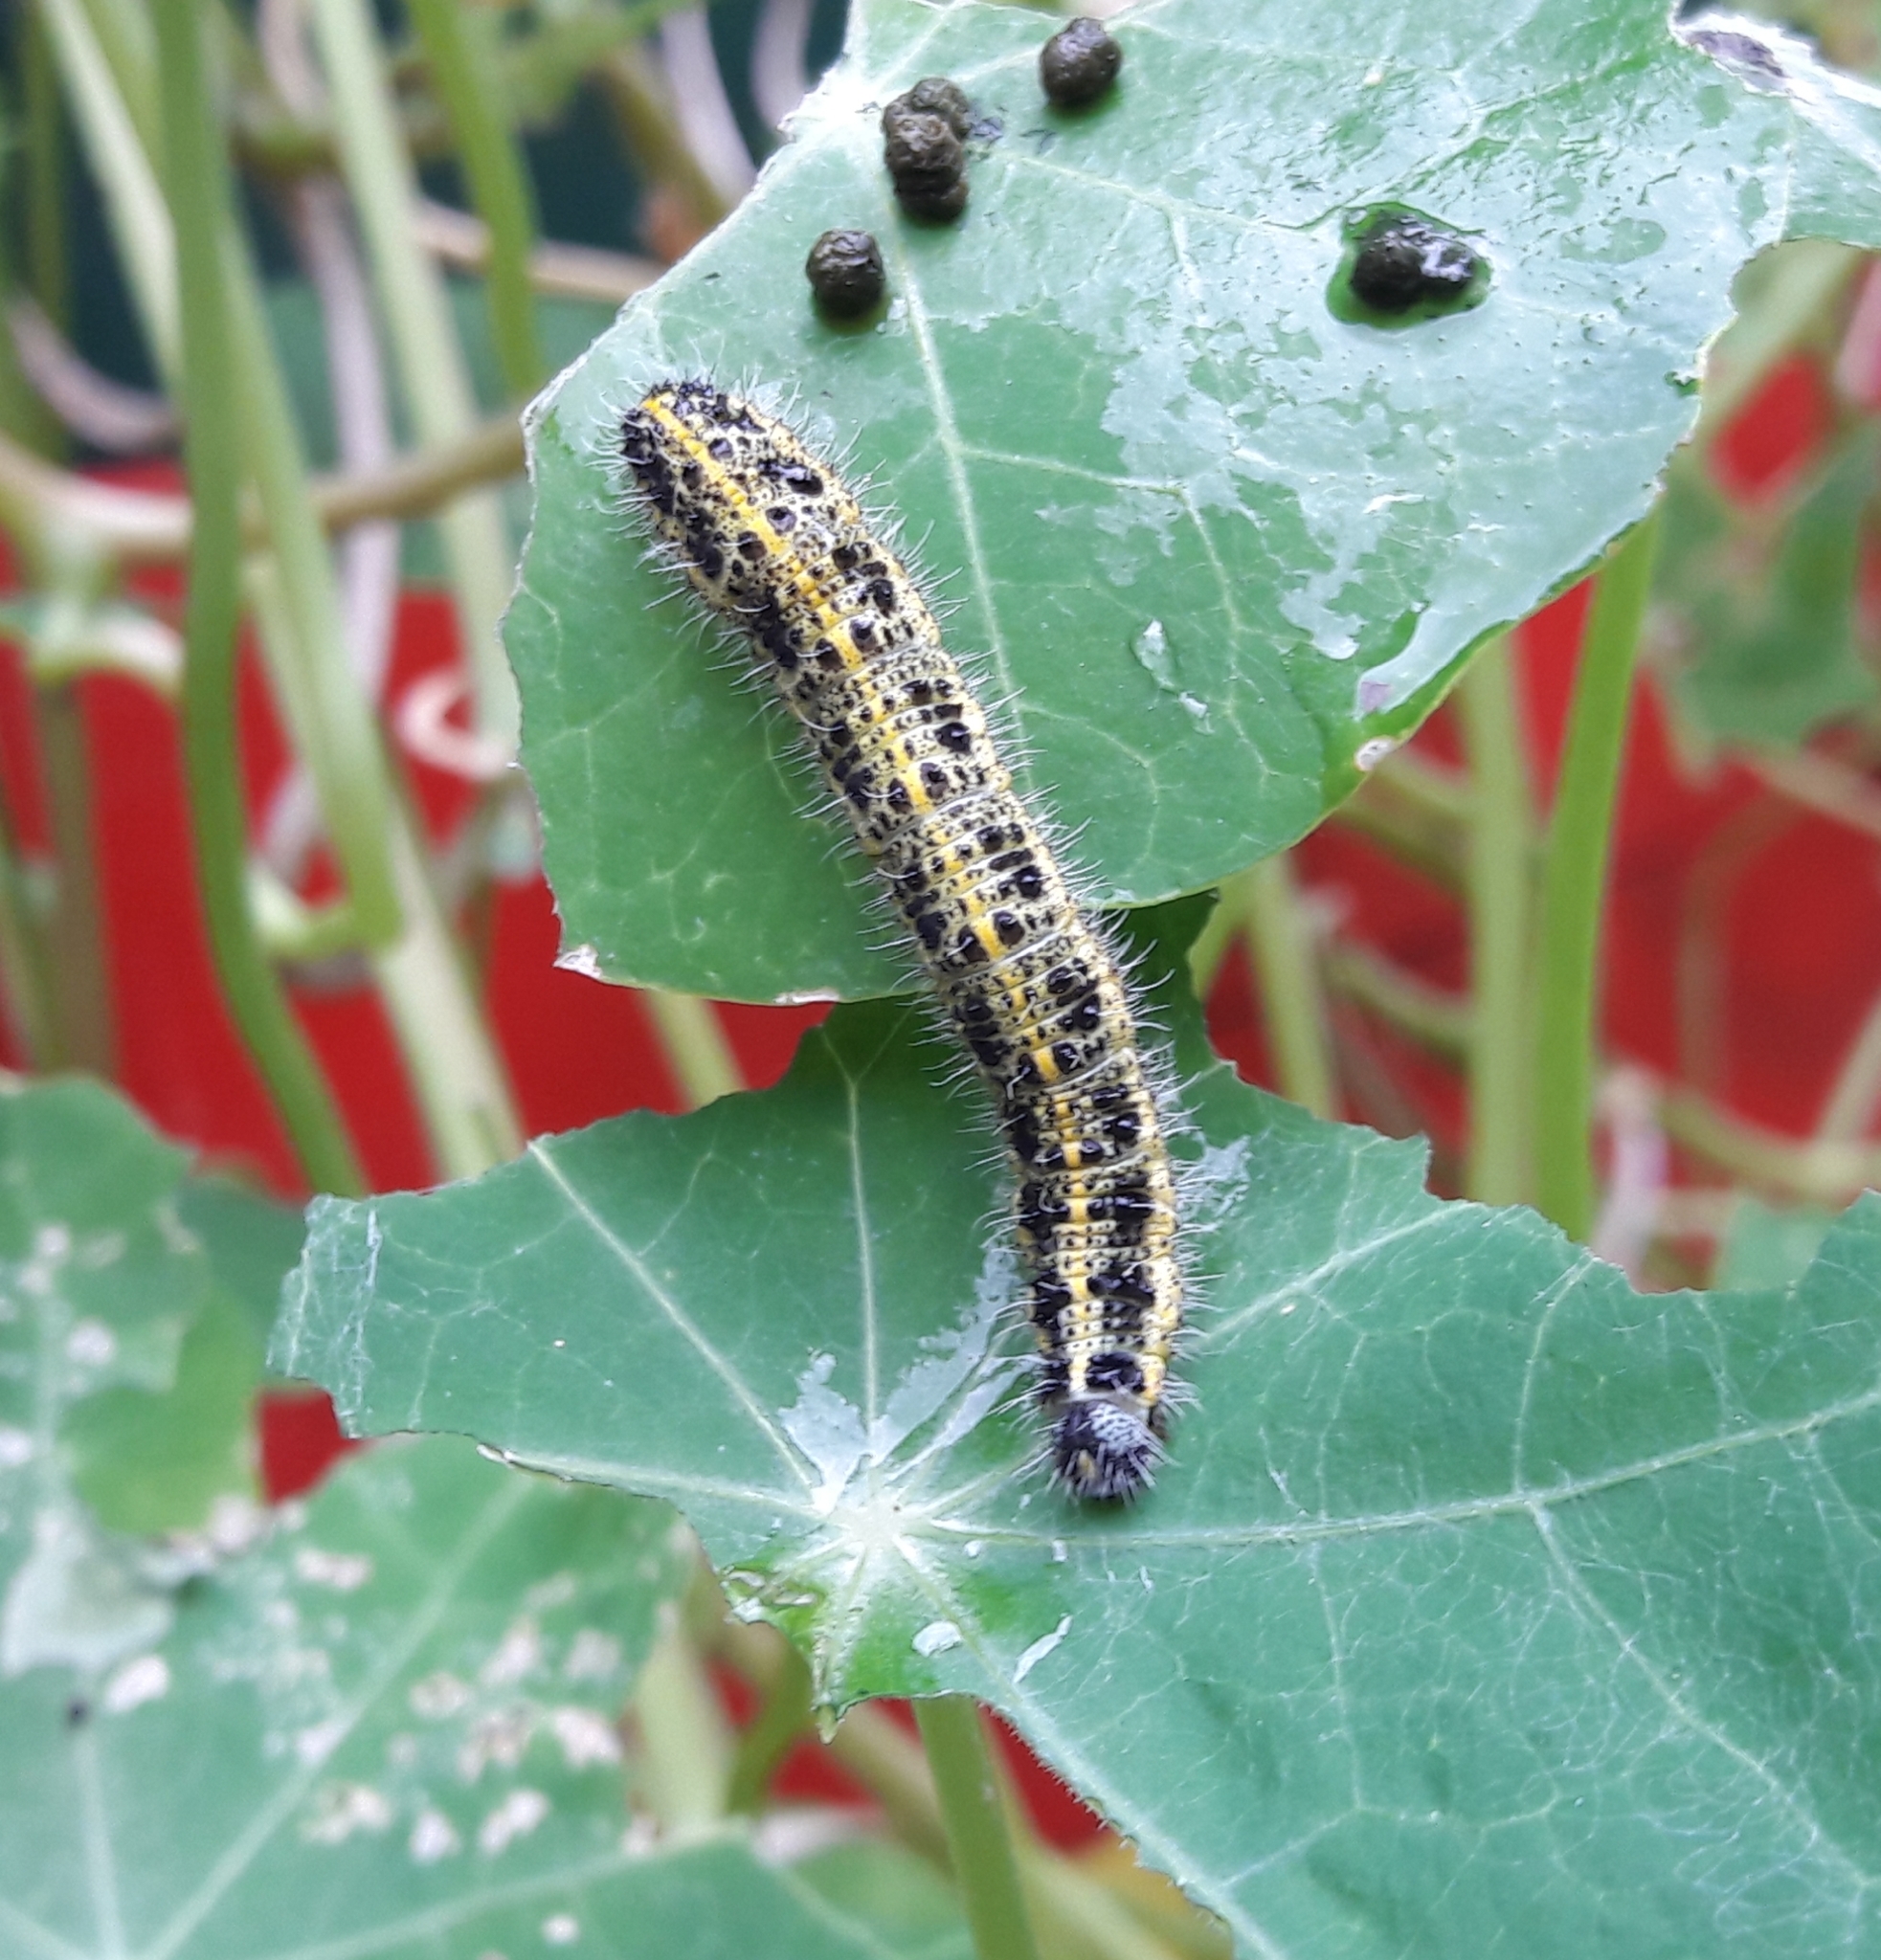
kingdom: Animalia
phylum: Arthropoda
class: Insecta
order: Lepidoptera
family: Pieridae
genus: Pieris
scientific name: Pieris brassicae
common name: Large white
